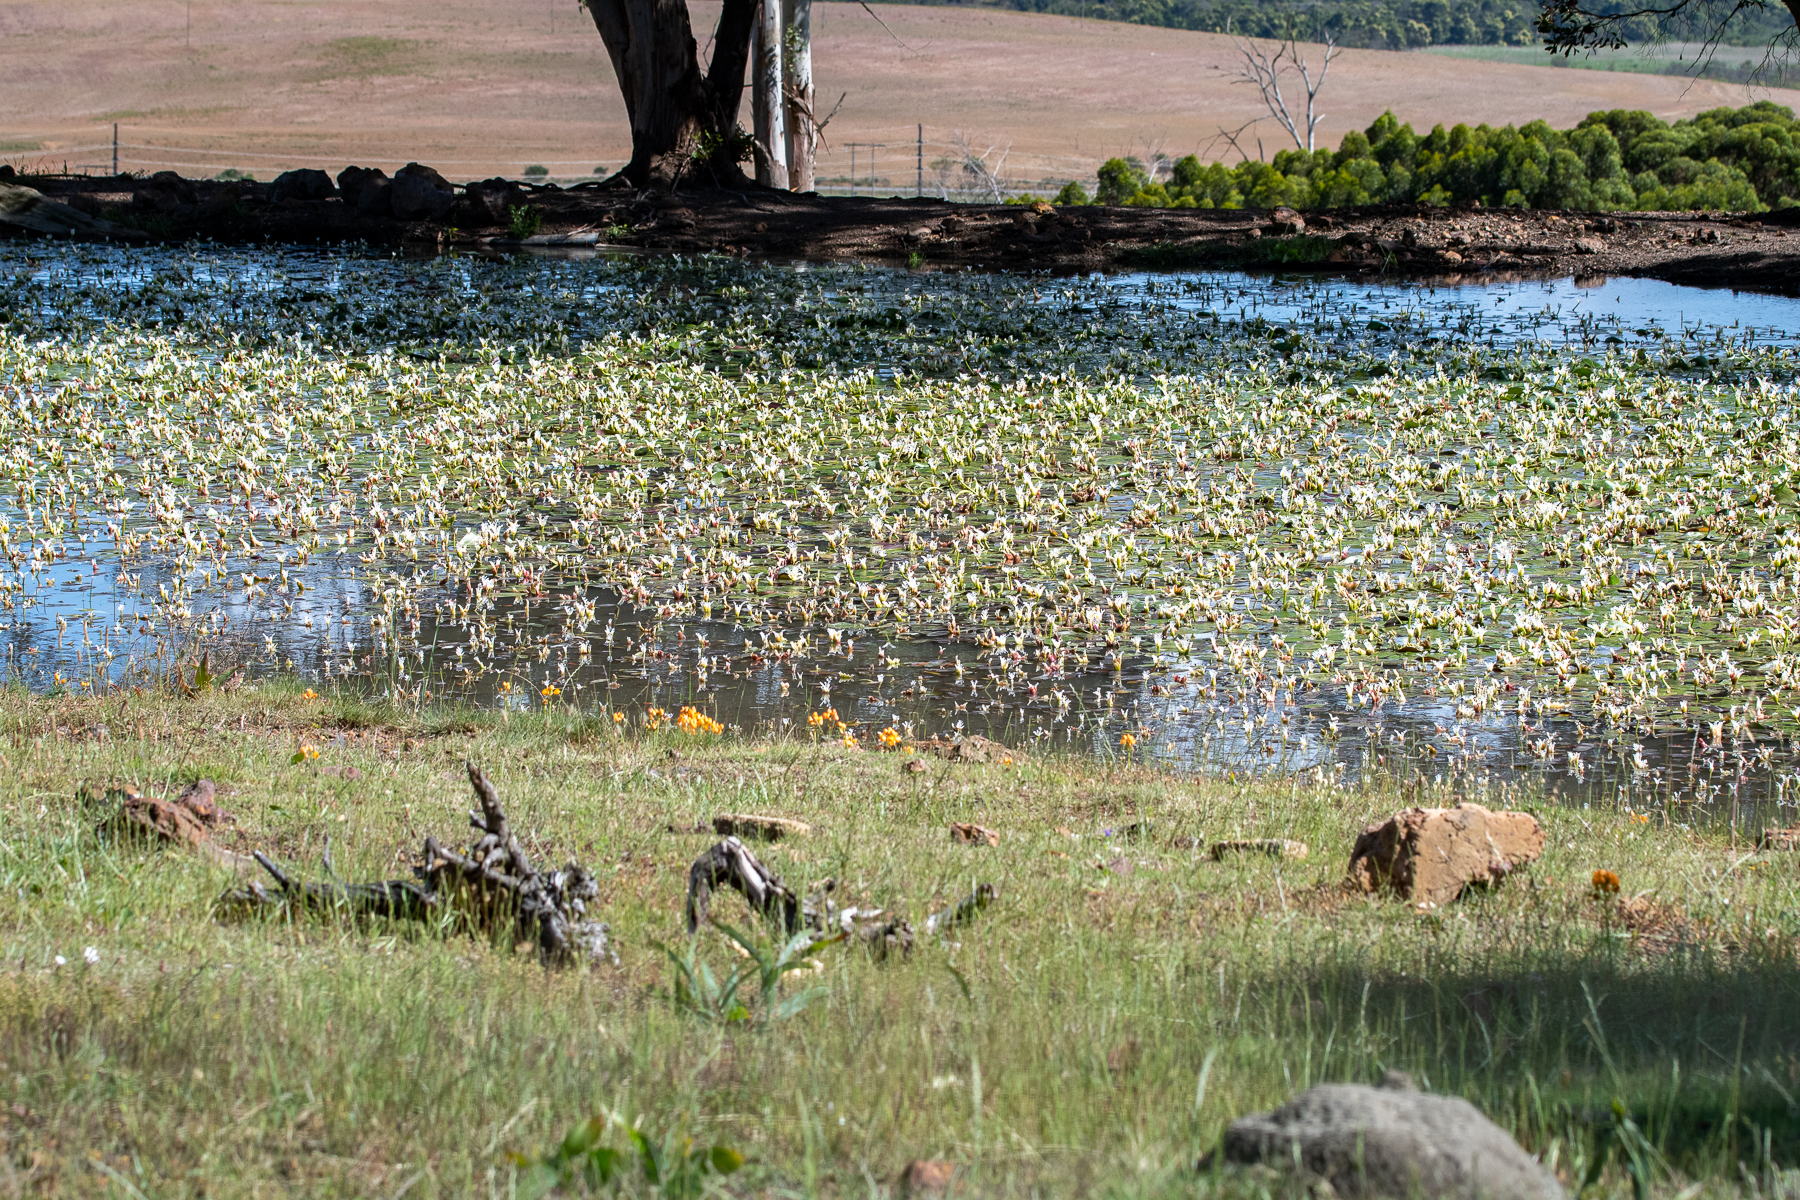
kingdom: Plantae
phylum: Tracheophyta
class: Liliopsida
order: Alismatales
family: Aponogetonaceae
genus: Aponogeton
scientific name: Aponogeton distachyos
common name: Cape-pondweed
